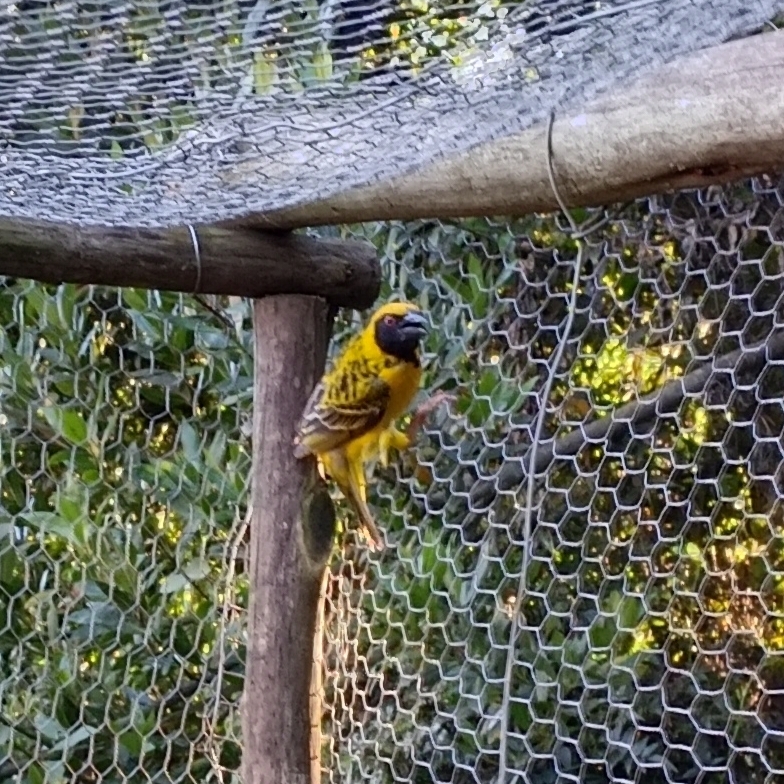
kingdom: Animalia
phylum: Chordata
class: Aves
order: Passeriformes
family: Ploceidae
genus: Ploceus
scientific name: Ploceus cucullatus
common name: Village weaver
